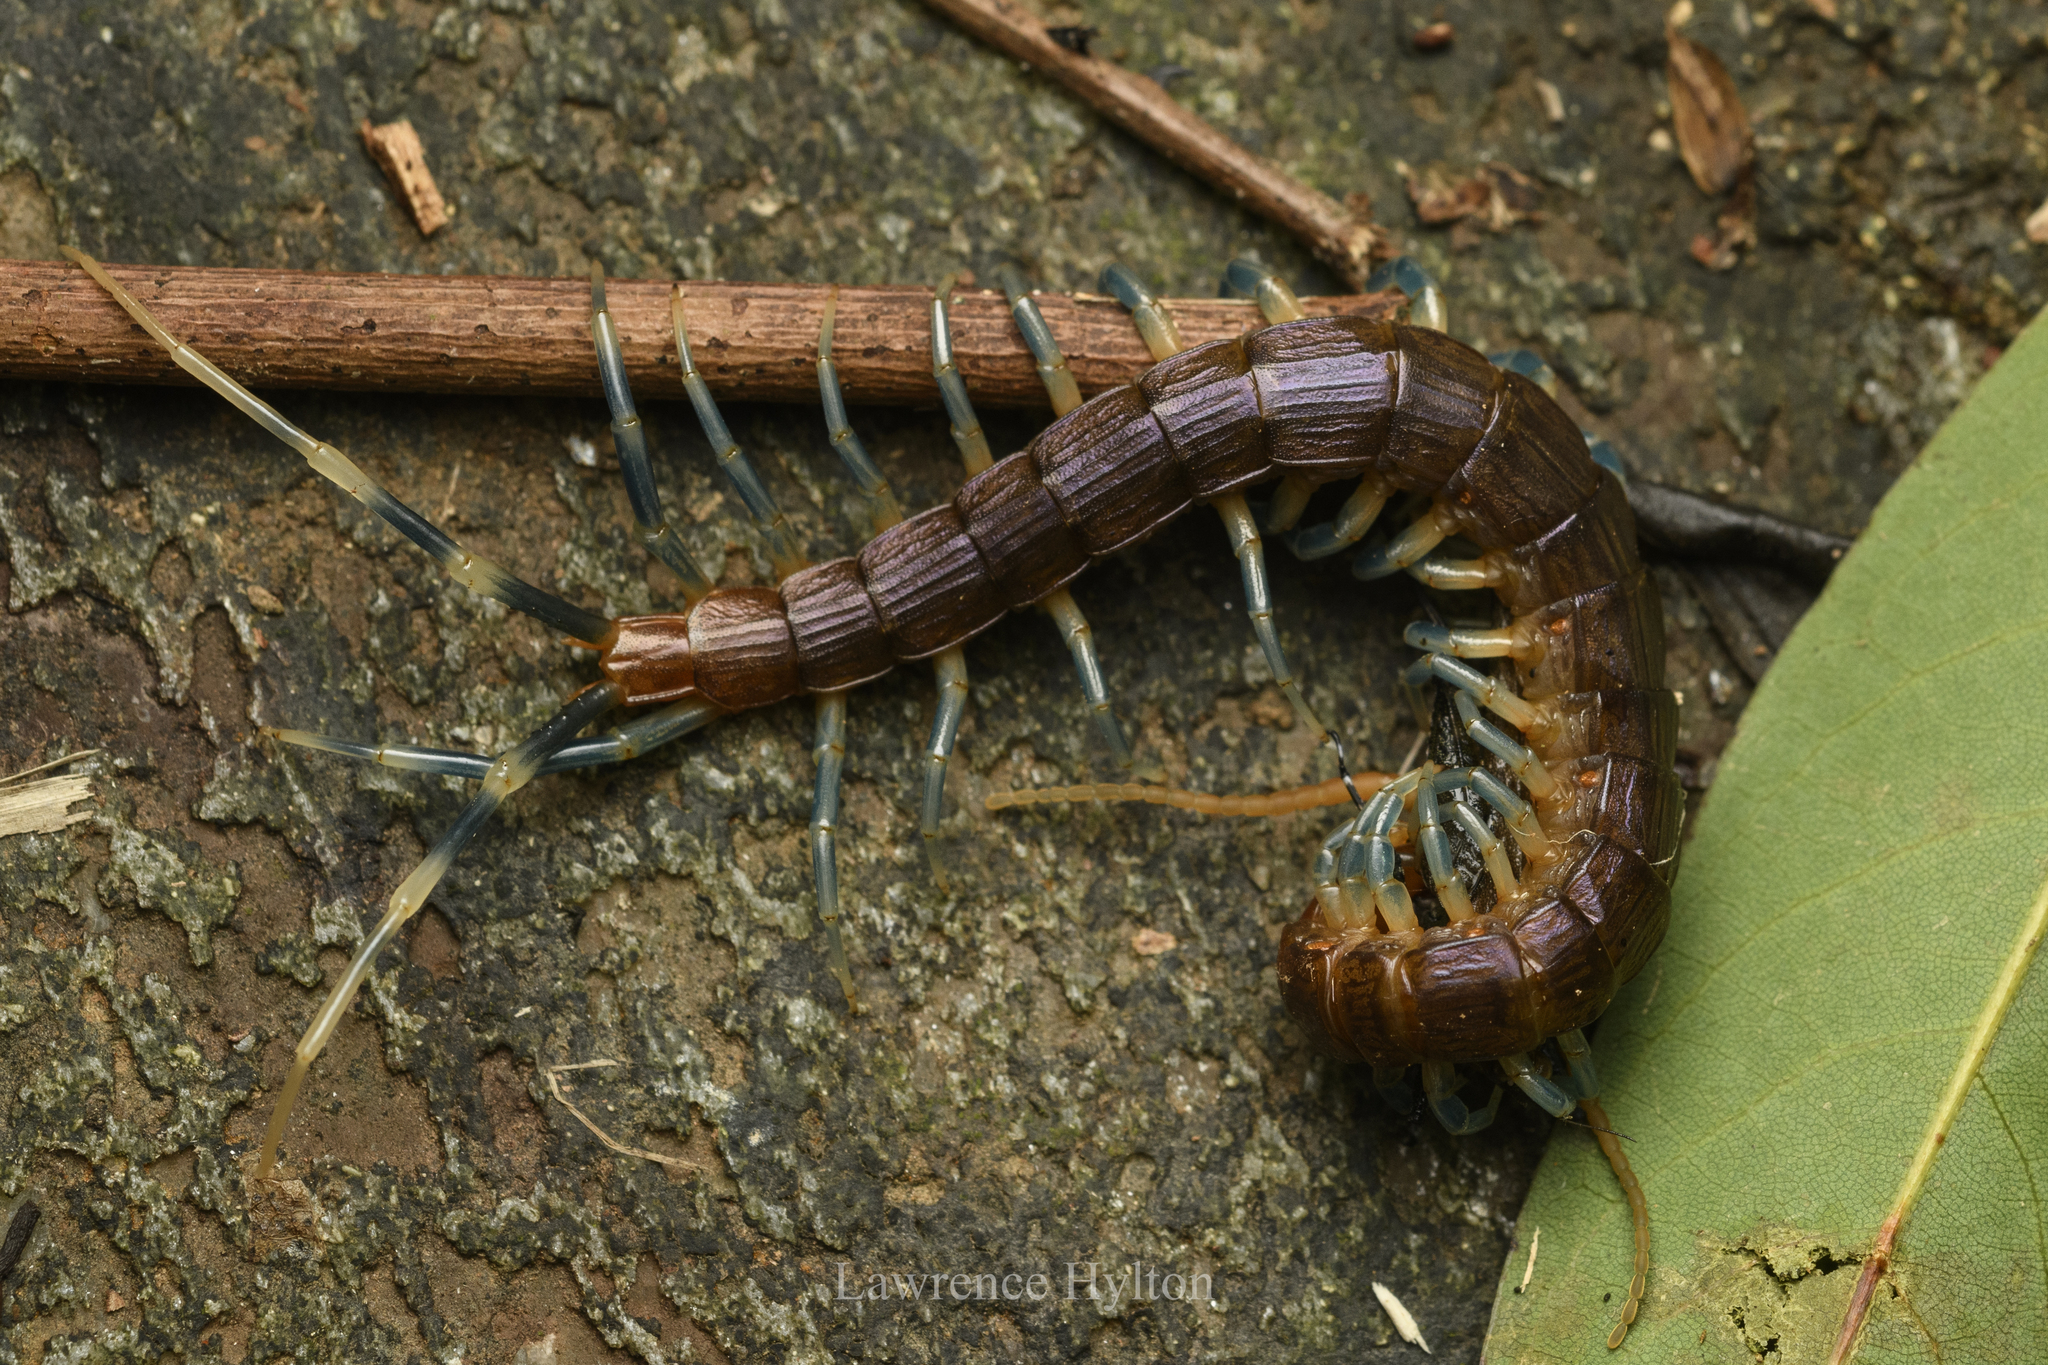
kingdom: Animalia
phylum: Arthropoda
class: Chilopoda
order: Scolopendromorpha
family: Scolopendridae
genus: Otostigmus
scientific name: Otostigmus scaber
